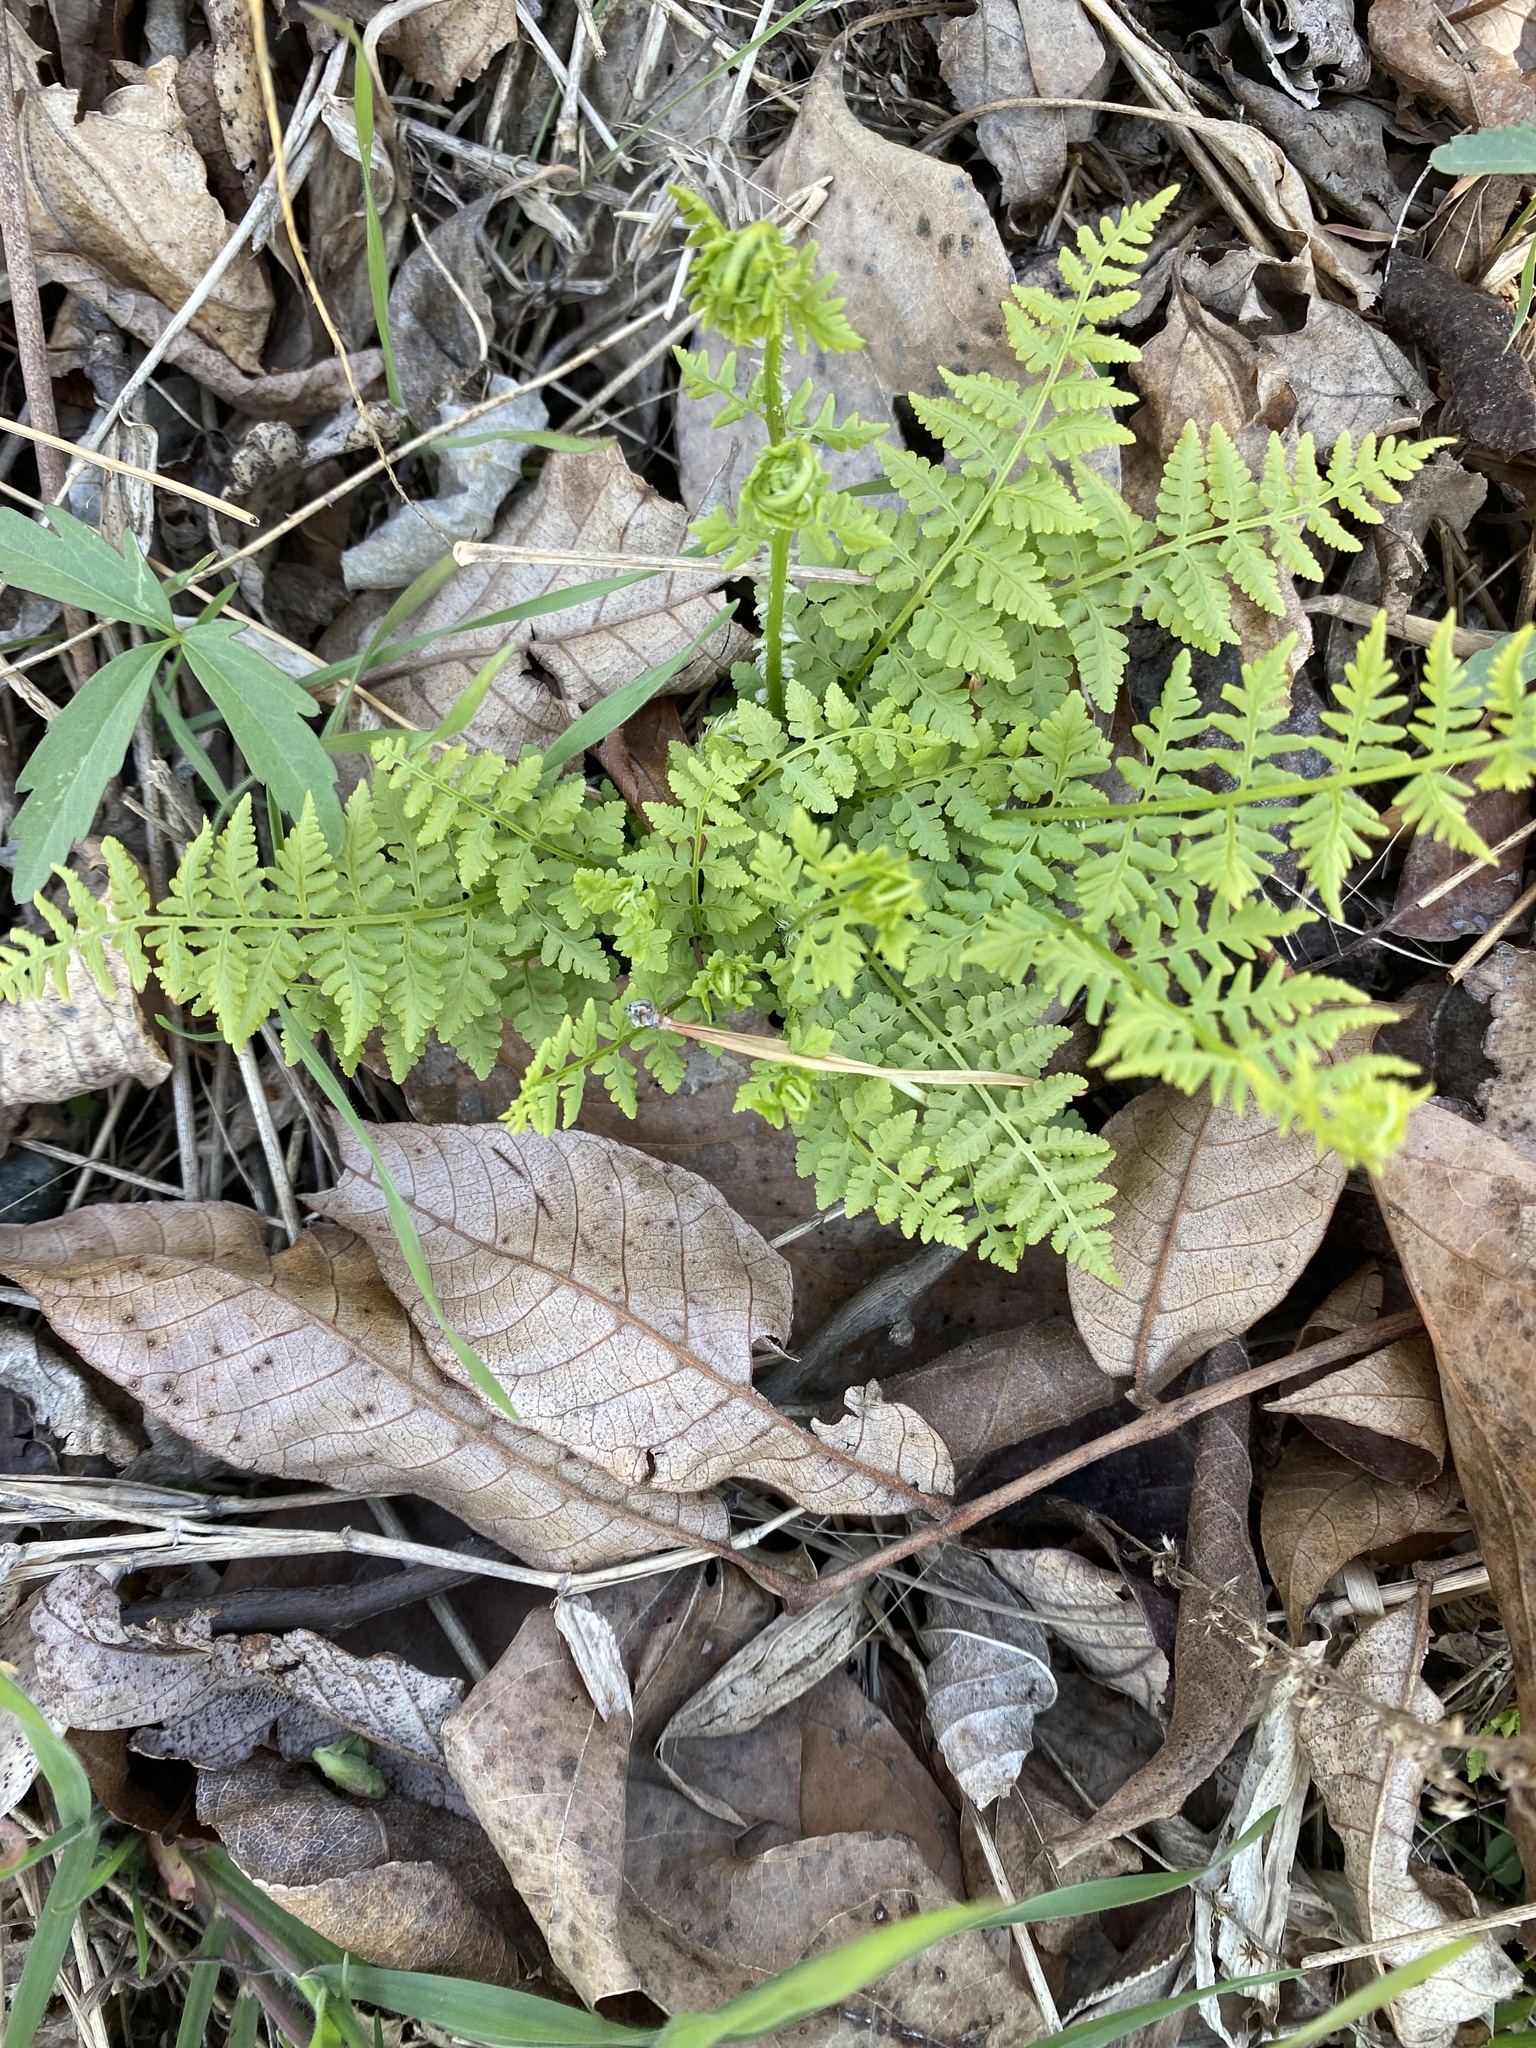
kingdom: Plantae
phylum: Tracheophyta
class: Polypodiopsida
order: Polypodiales
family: Woodsiaceae
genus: Physematium
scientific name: Physematium obtusum
